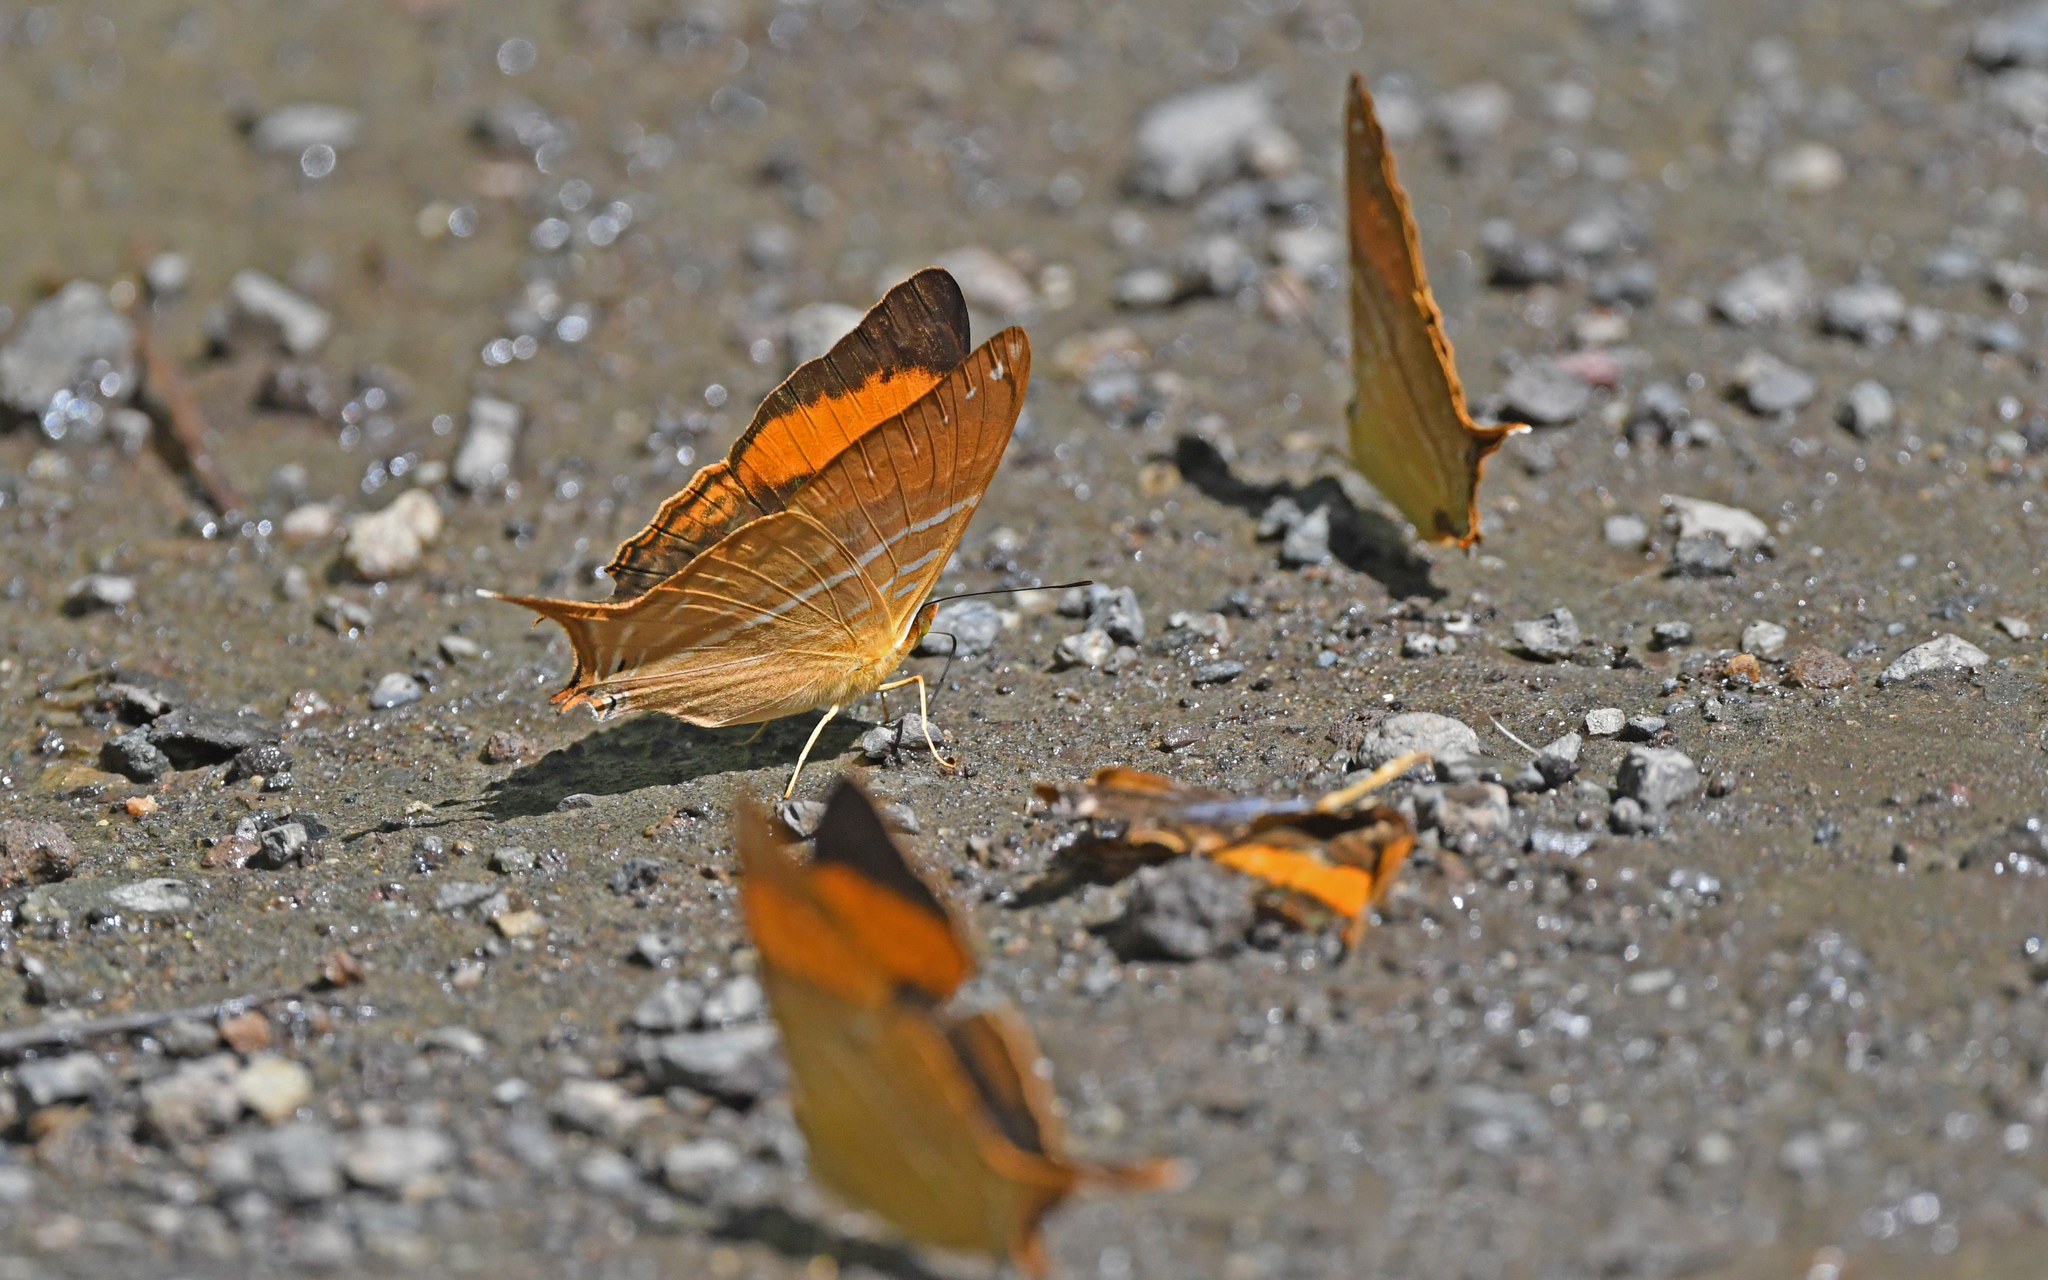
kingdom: Animalia
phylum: Arthropoda
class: Insecta
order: Lepidoptera
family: Nymphalidae
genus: Marpesia
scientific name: Marpesia corinna
